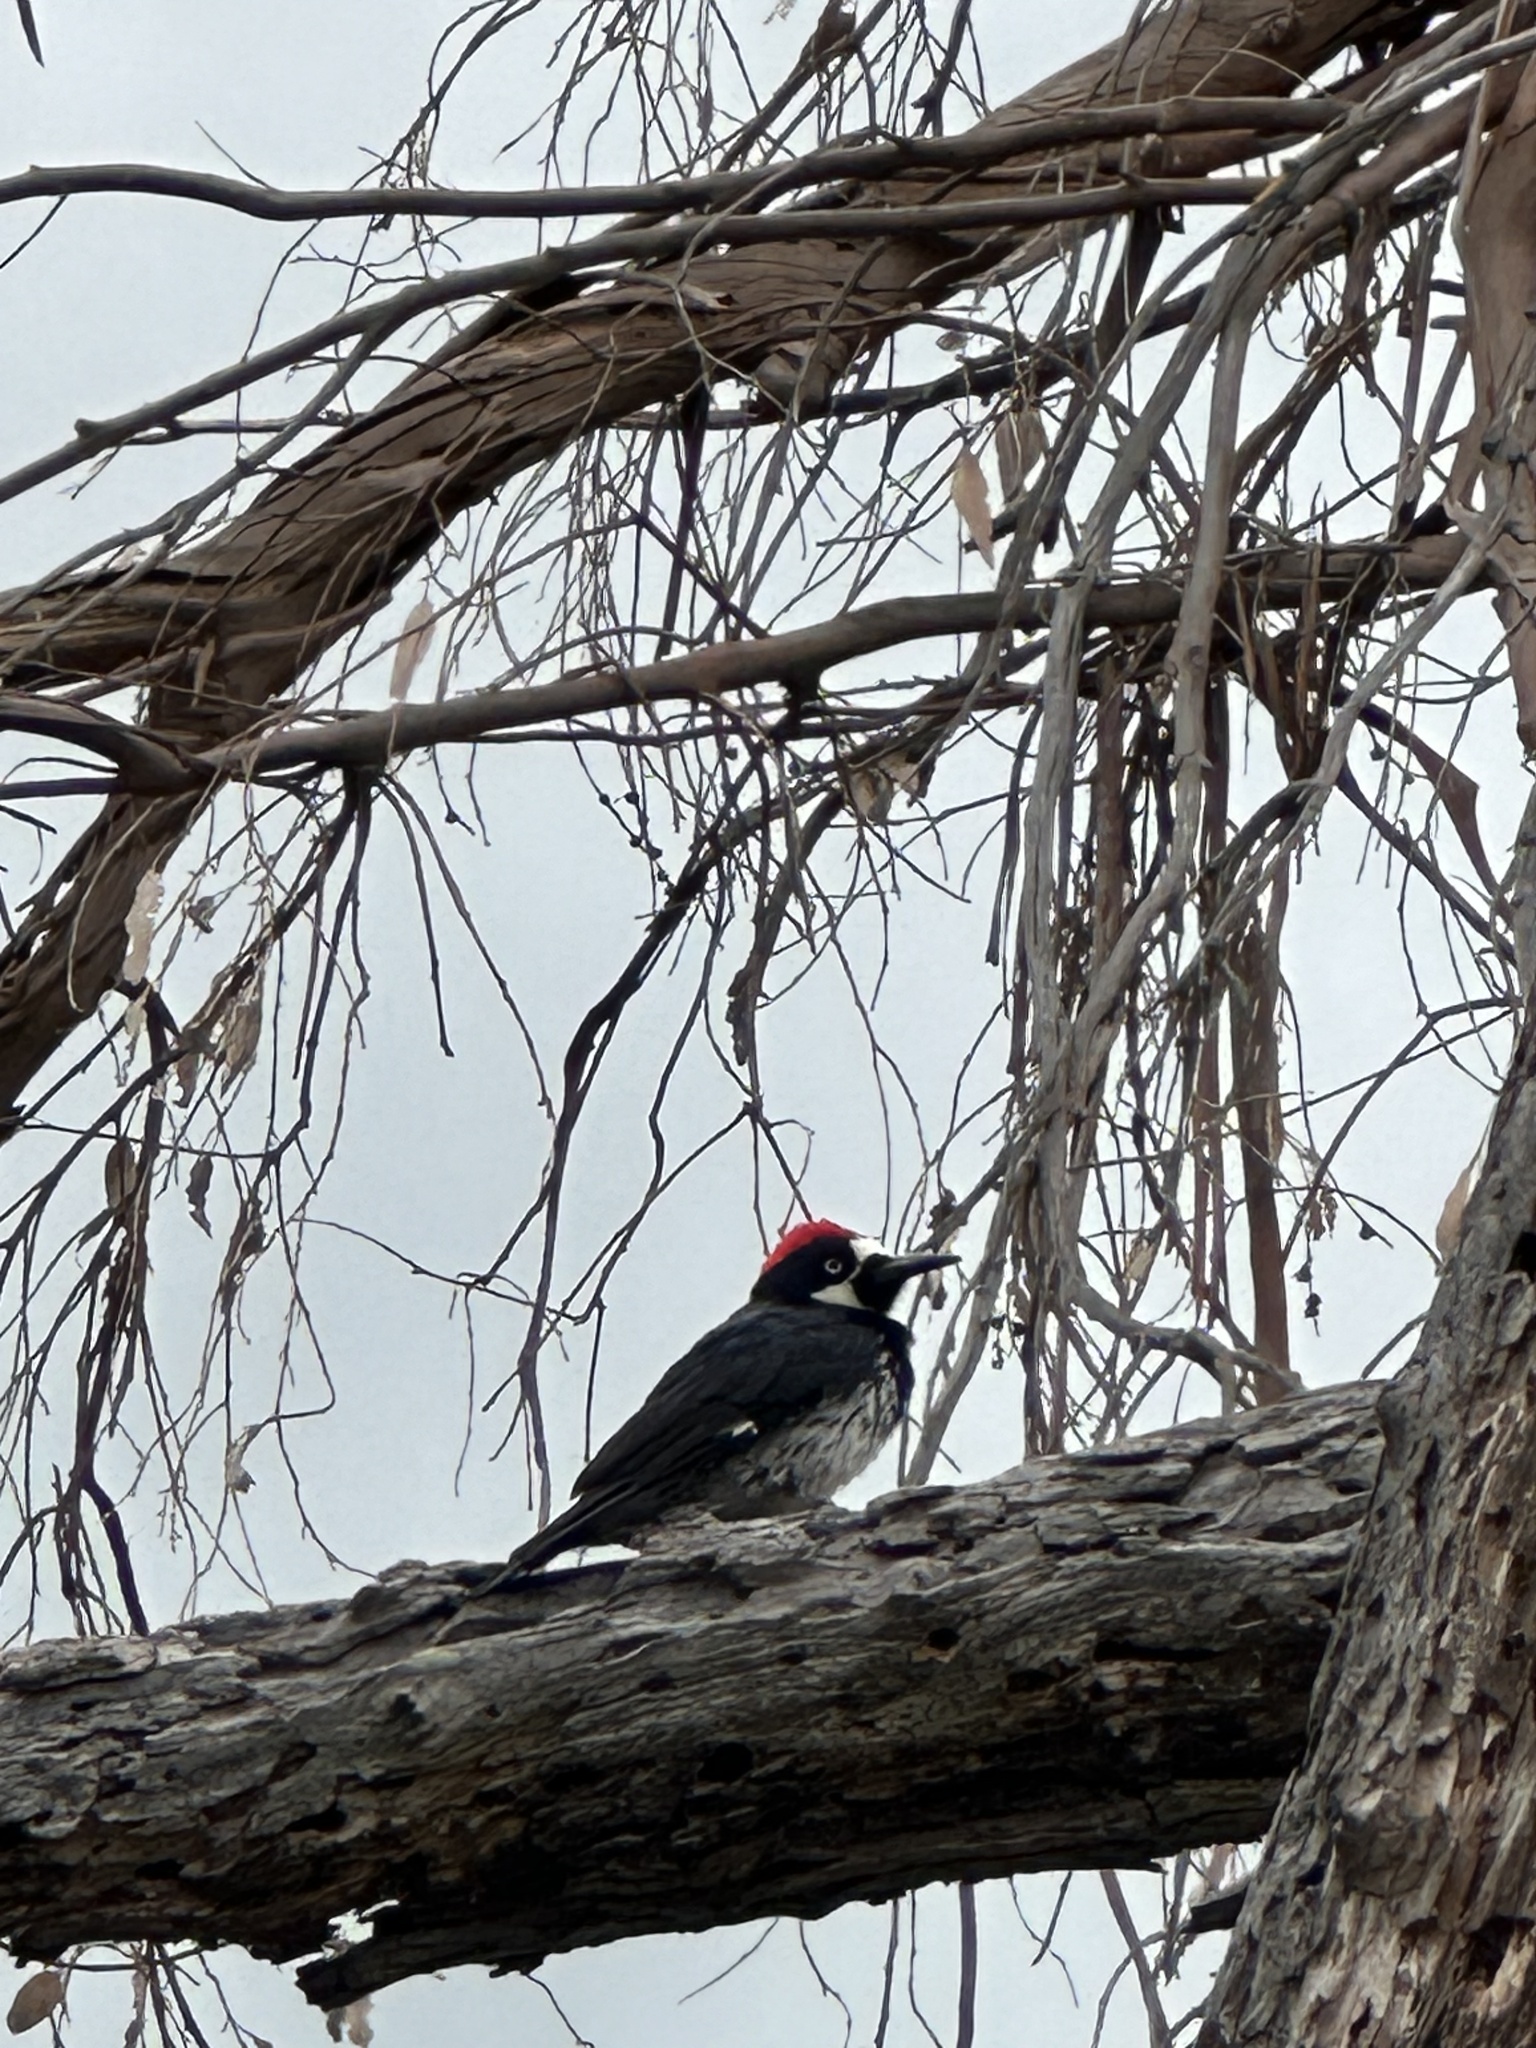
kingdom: Animalia
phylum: Chordata
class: Aves
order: Piciformes
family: Picidae
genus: Melanerpes
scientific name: Melanerpes formicivorus
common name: Acorn woodpecker
